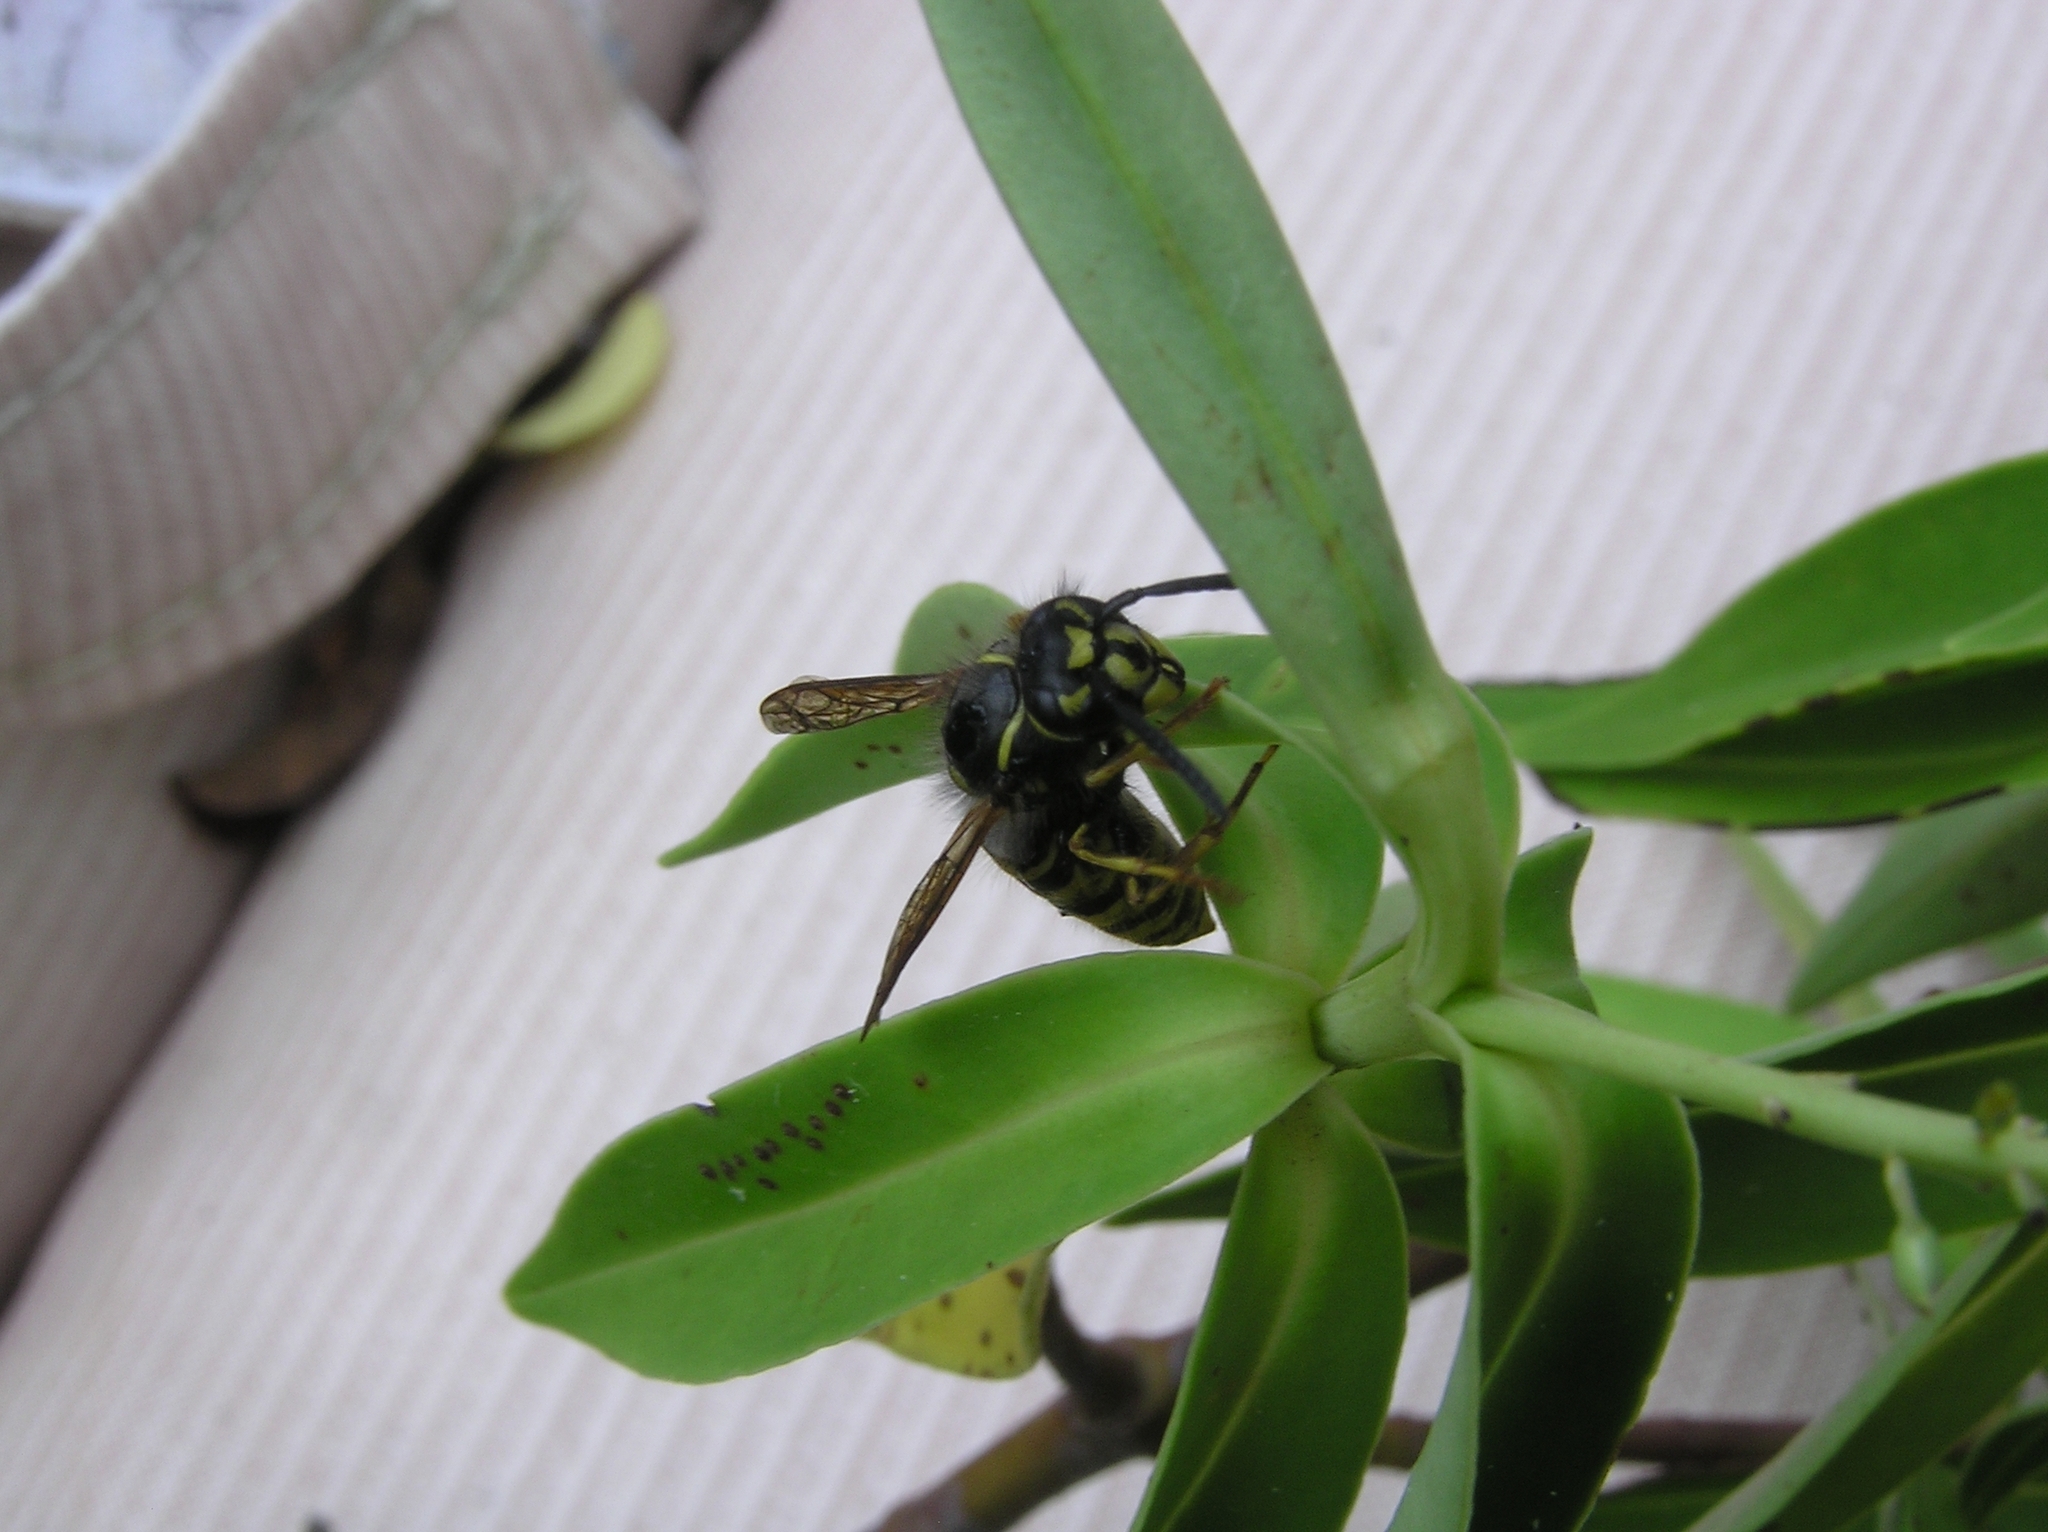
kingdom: Animalia
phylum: Arthropoda
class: Insecta
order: Hymenoptera
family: Vespidae
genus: Vespula
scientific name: Vespula vulgaris
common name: Common wasp
